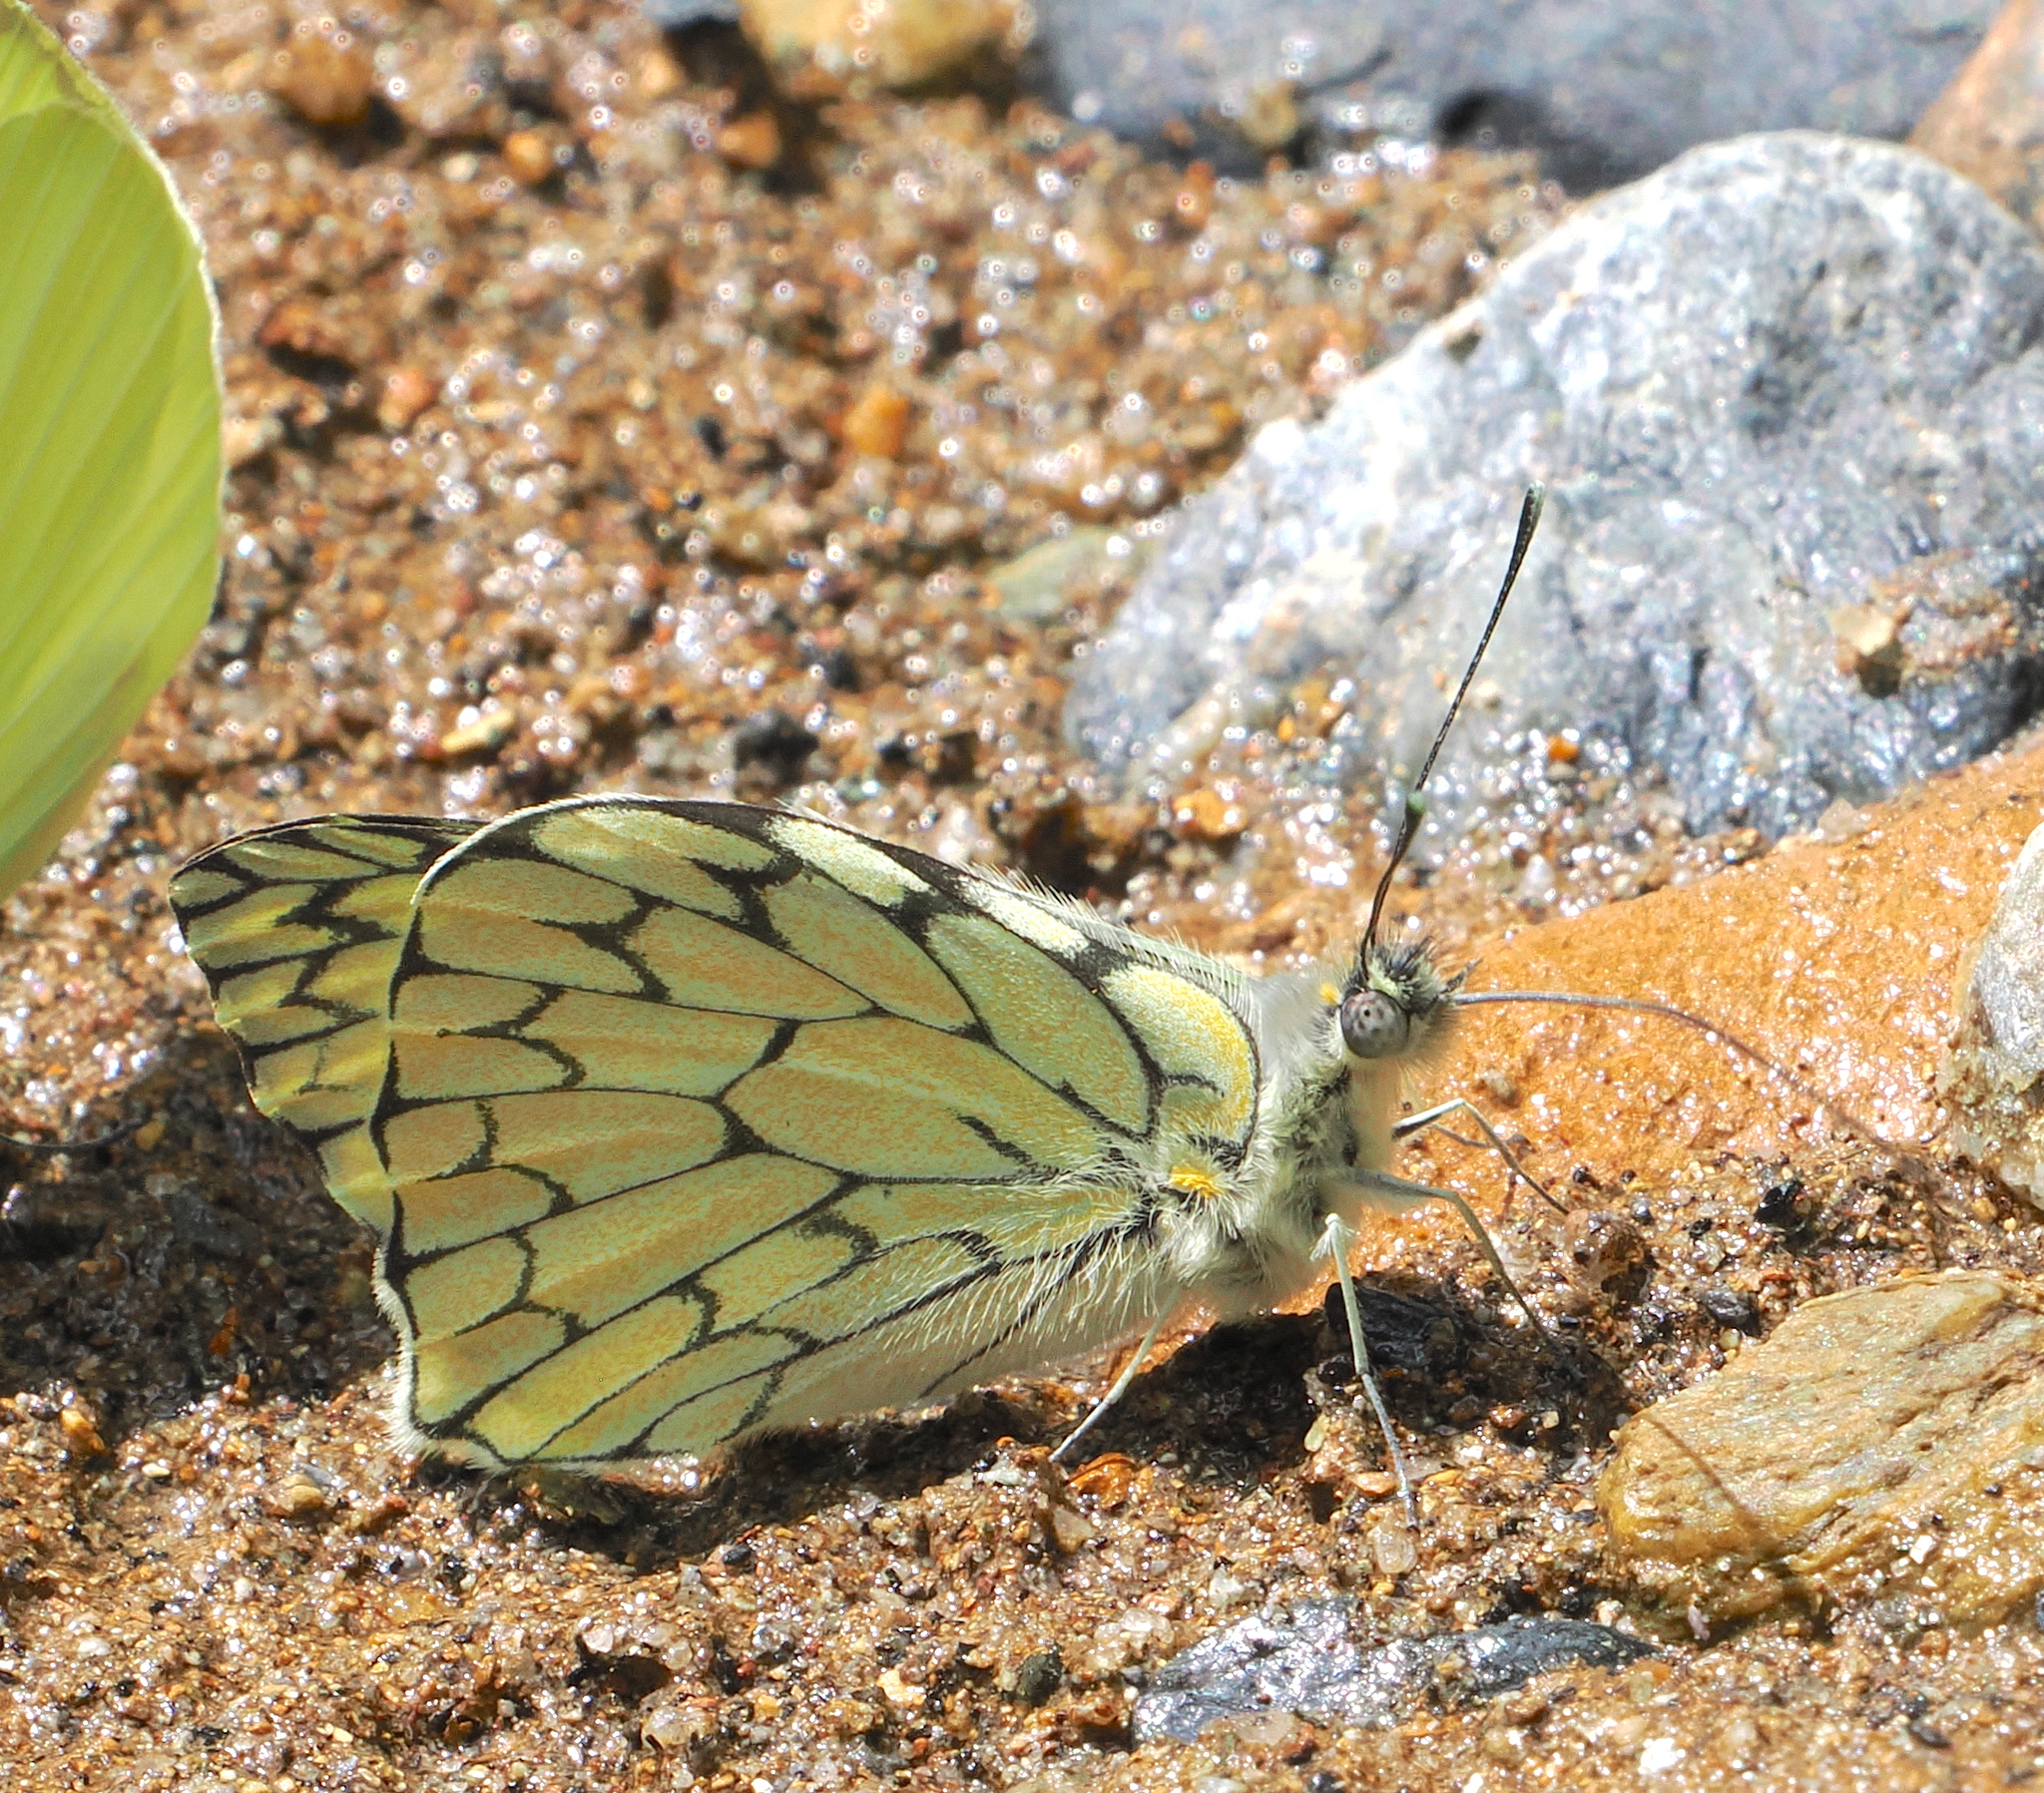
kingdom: Animalia
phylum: Arthropoda
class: Insecta
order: Lepidoptera
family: Pieridae
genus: Hesperocharis
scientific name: Hesperocharis marchalii
